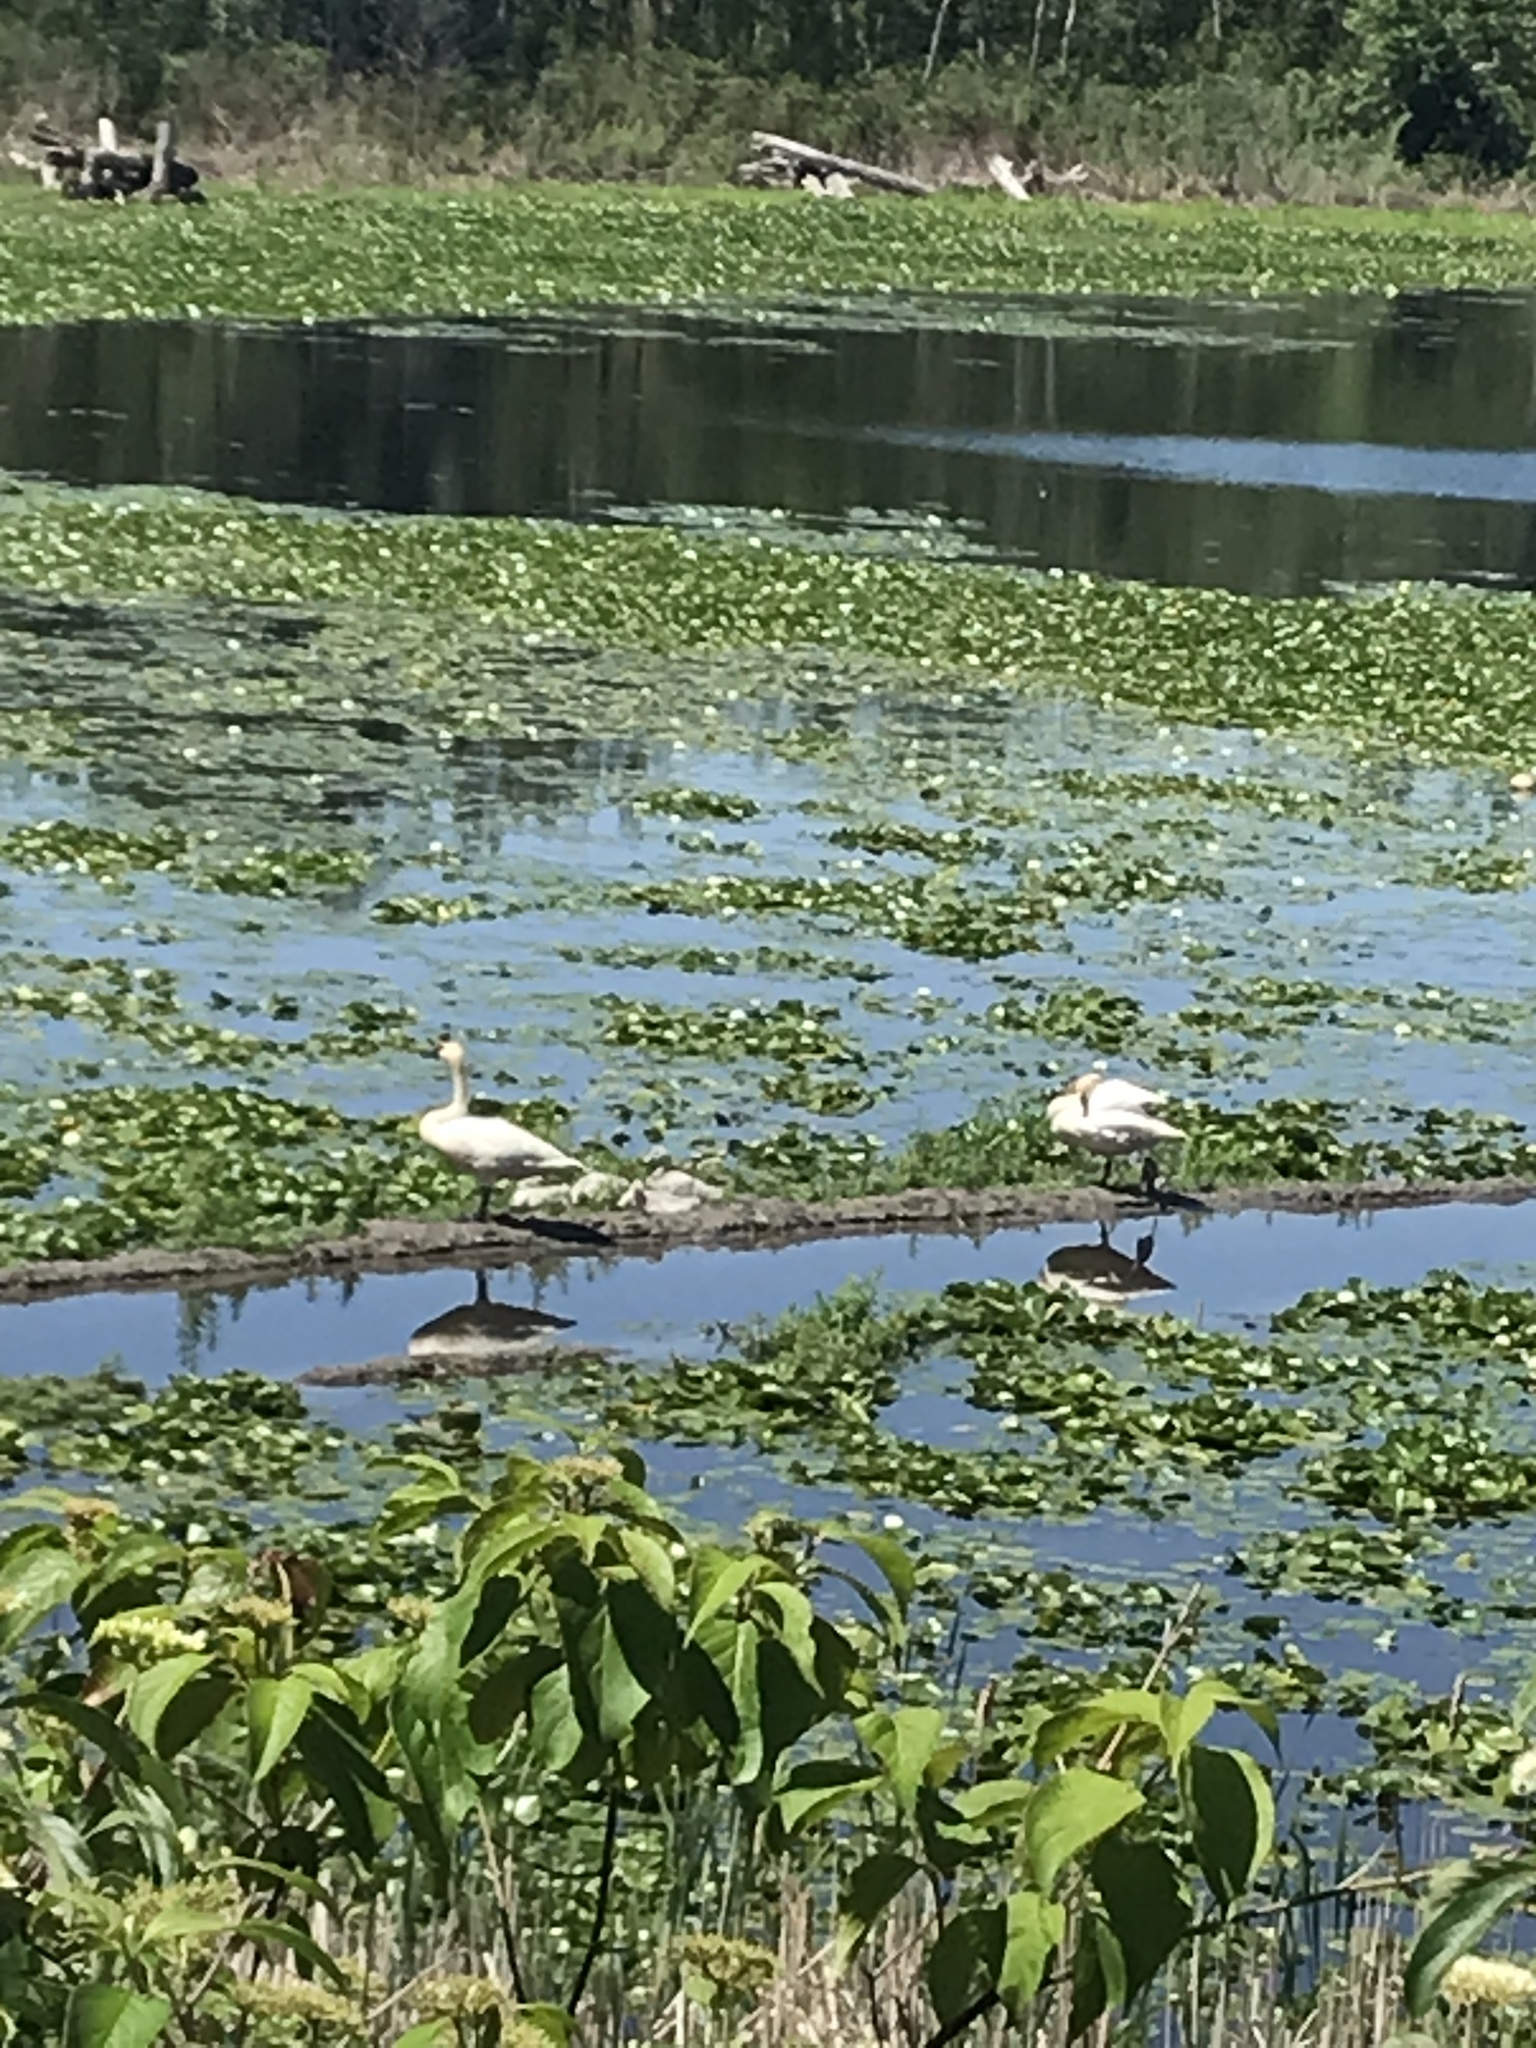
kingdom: Animalia
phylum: Chordata
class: Aves
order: Anseriformes
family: Anatidae
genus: Cygnus
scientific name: Cygnus buccinator
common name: Trumpeter swan
